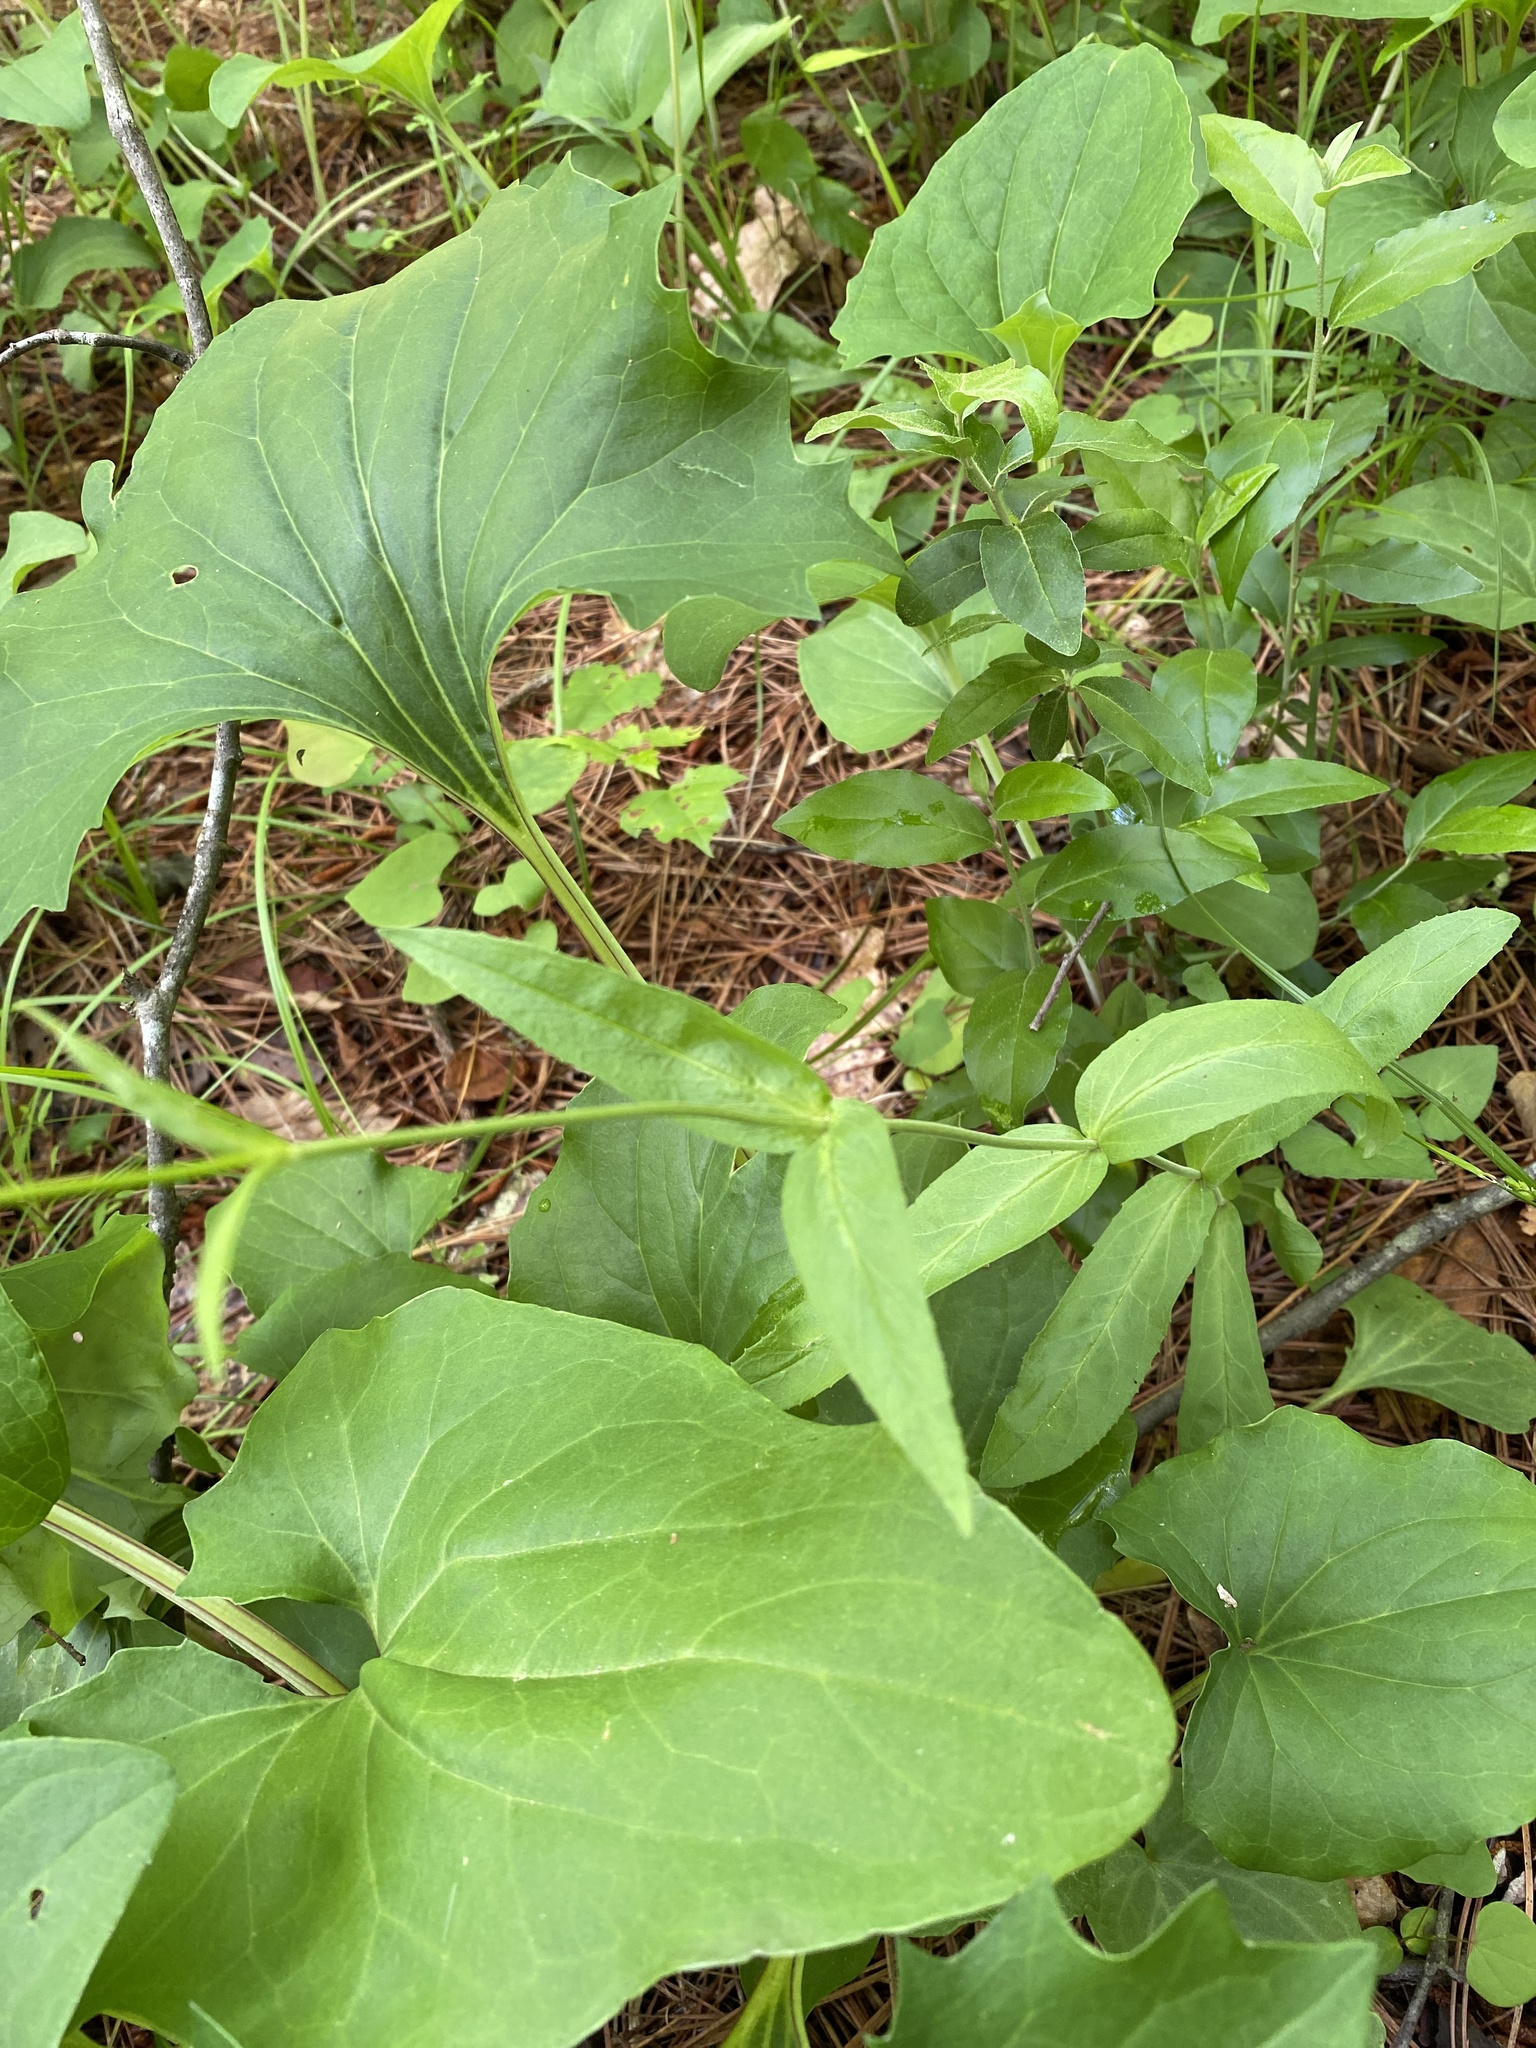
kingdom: Plantae
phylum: Tracheophyta
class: Magnoliopsida
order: Lamiales
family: Plantaginaceae
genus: Penstemon
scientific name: Penstemon laevigatus
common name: Eastern beardtongue
